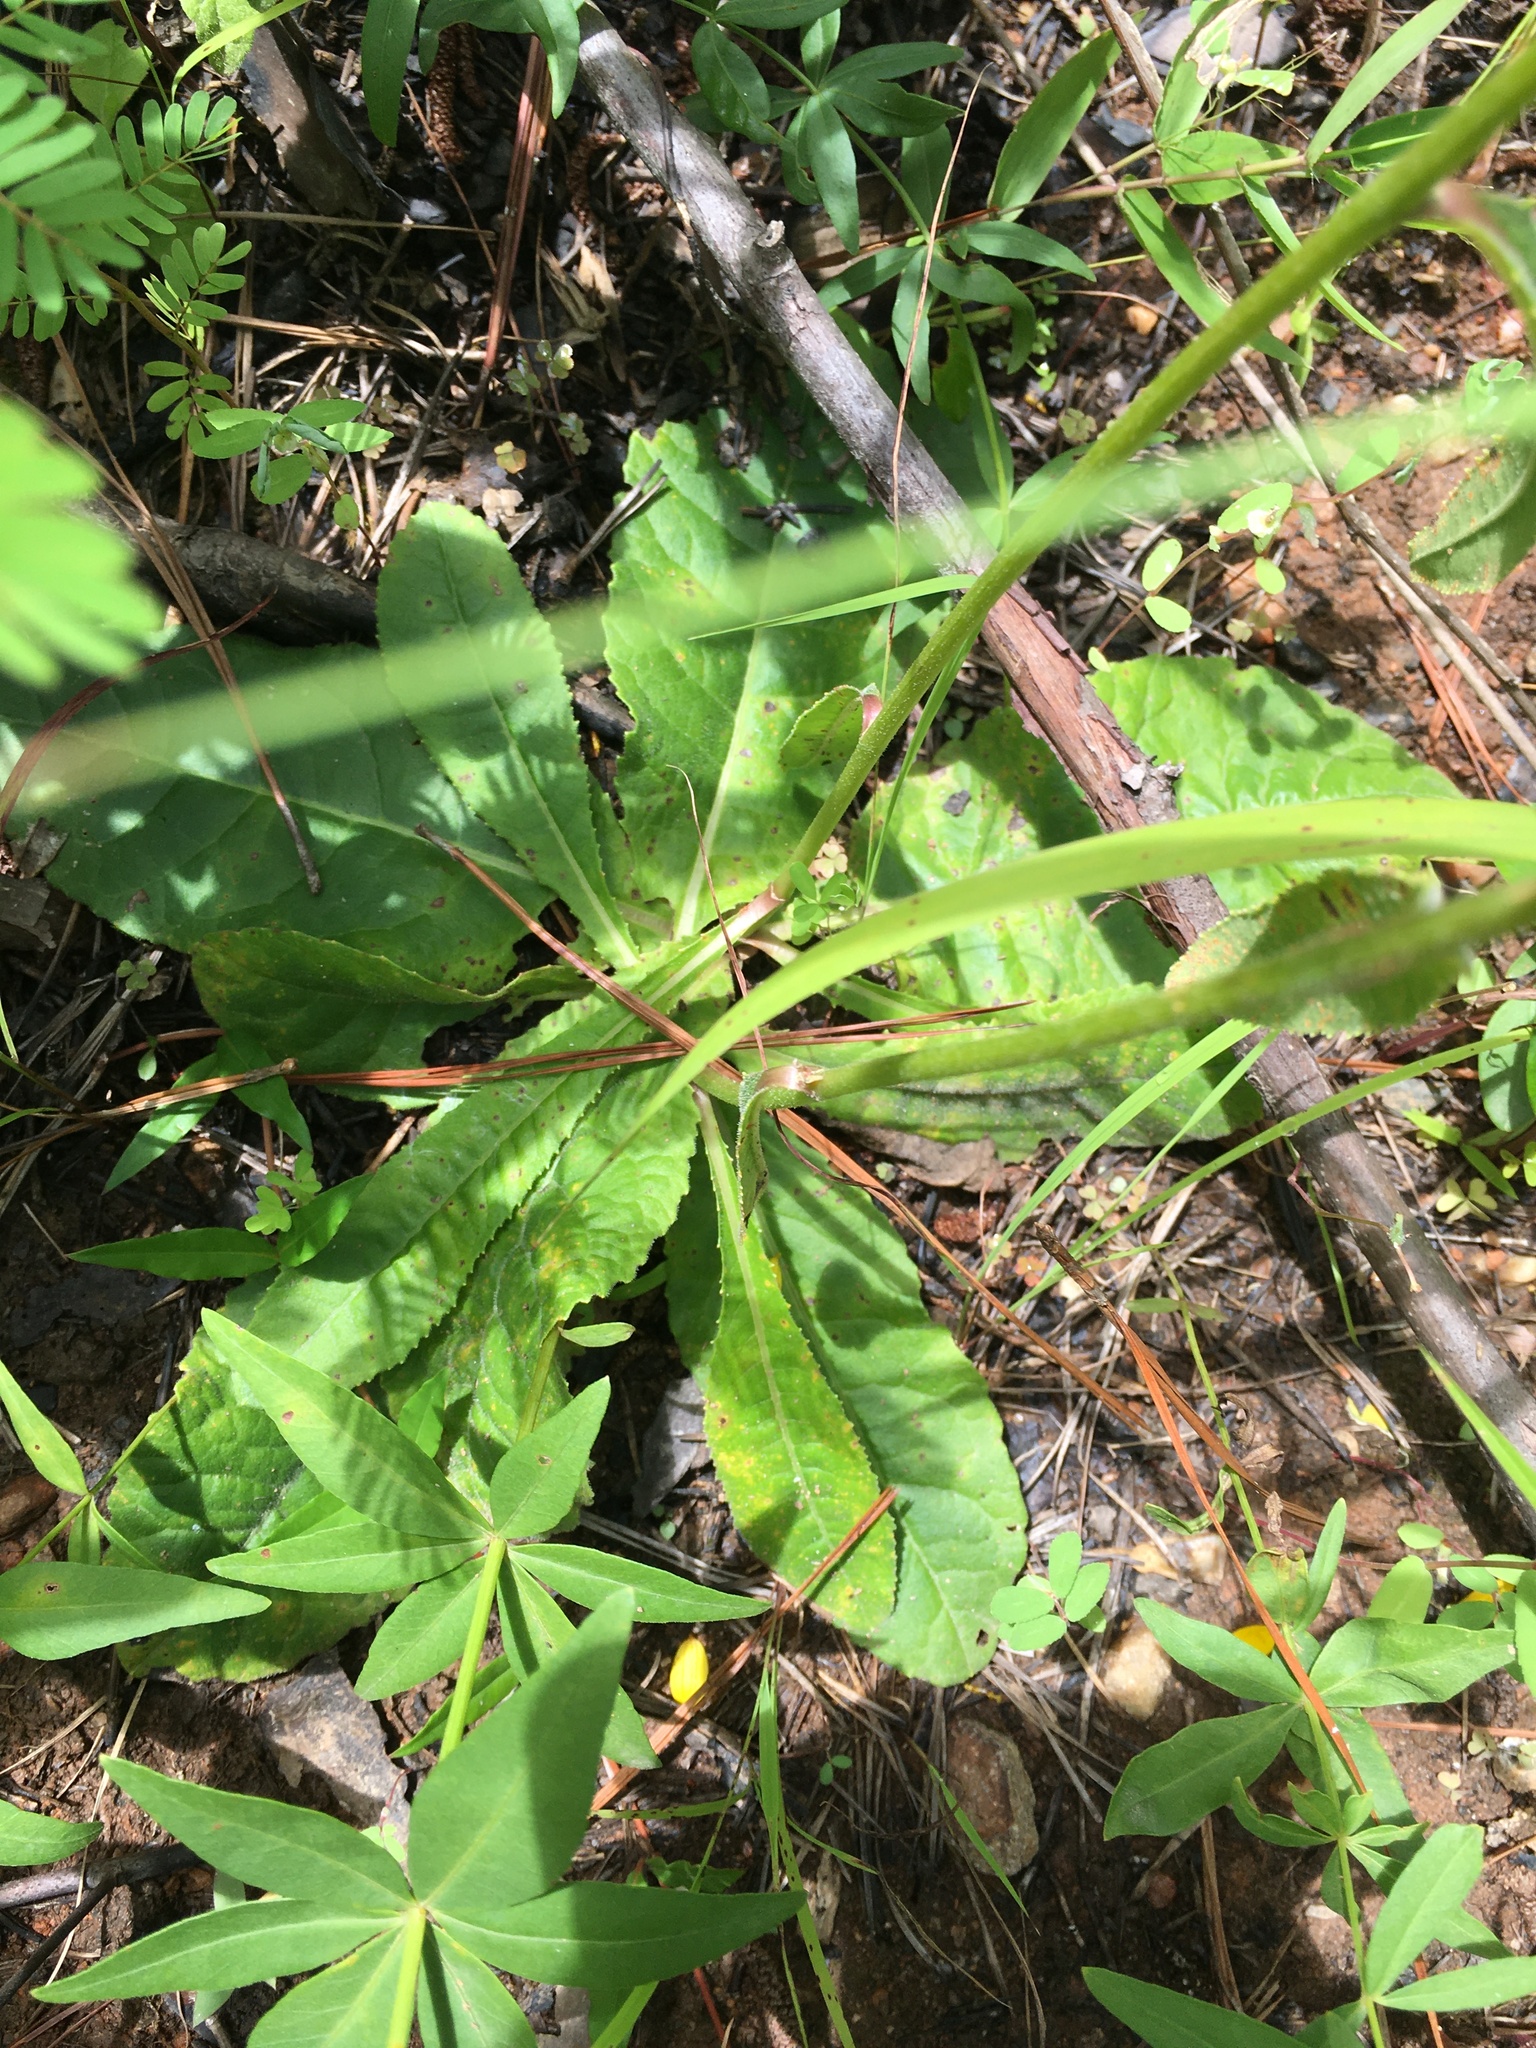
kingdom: Plantae
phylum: Tracheophyta
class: Magnoliopsida
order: Asterales
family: Asteraceae
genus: Vernonia
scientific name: Vernonia acaulis
